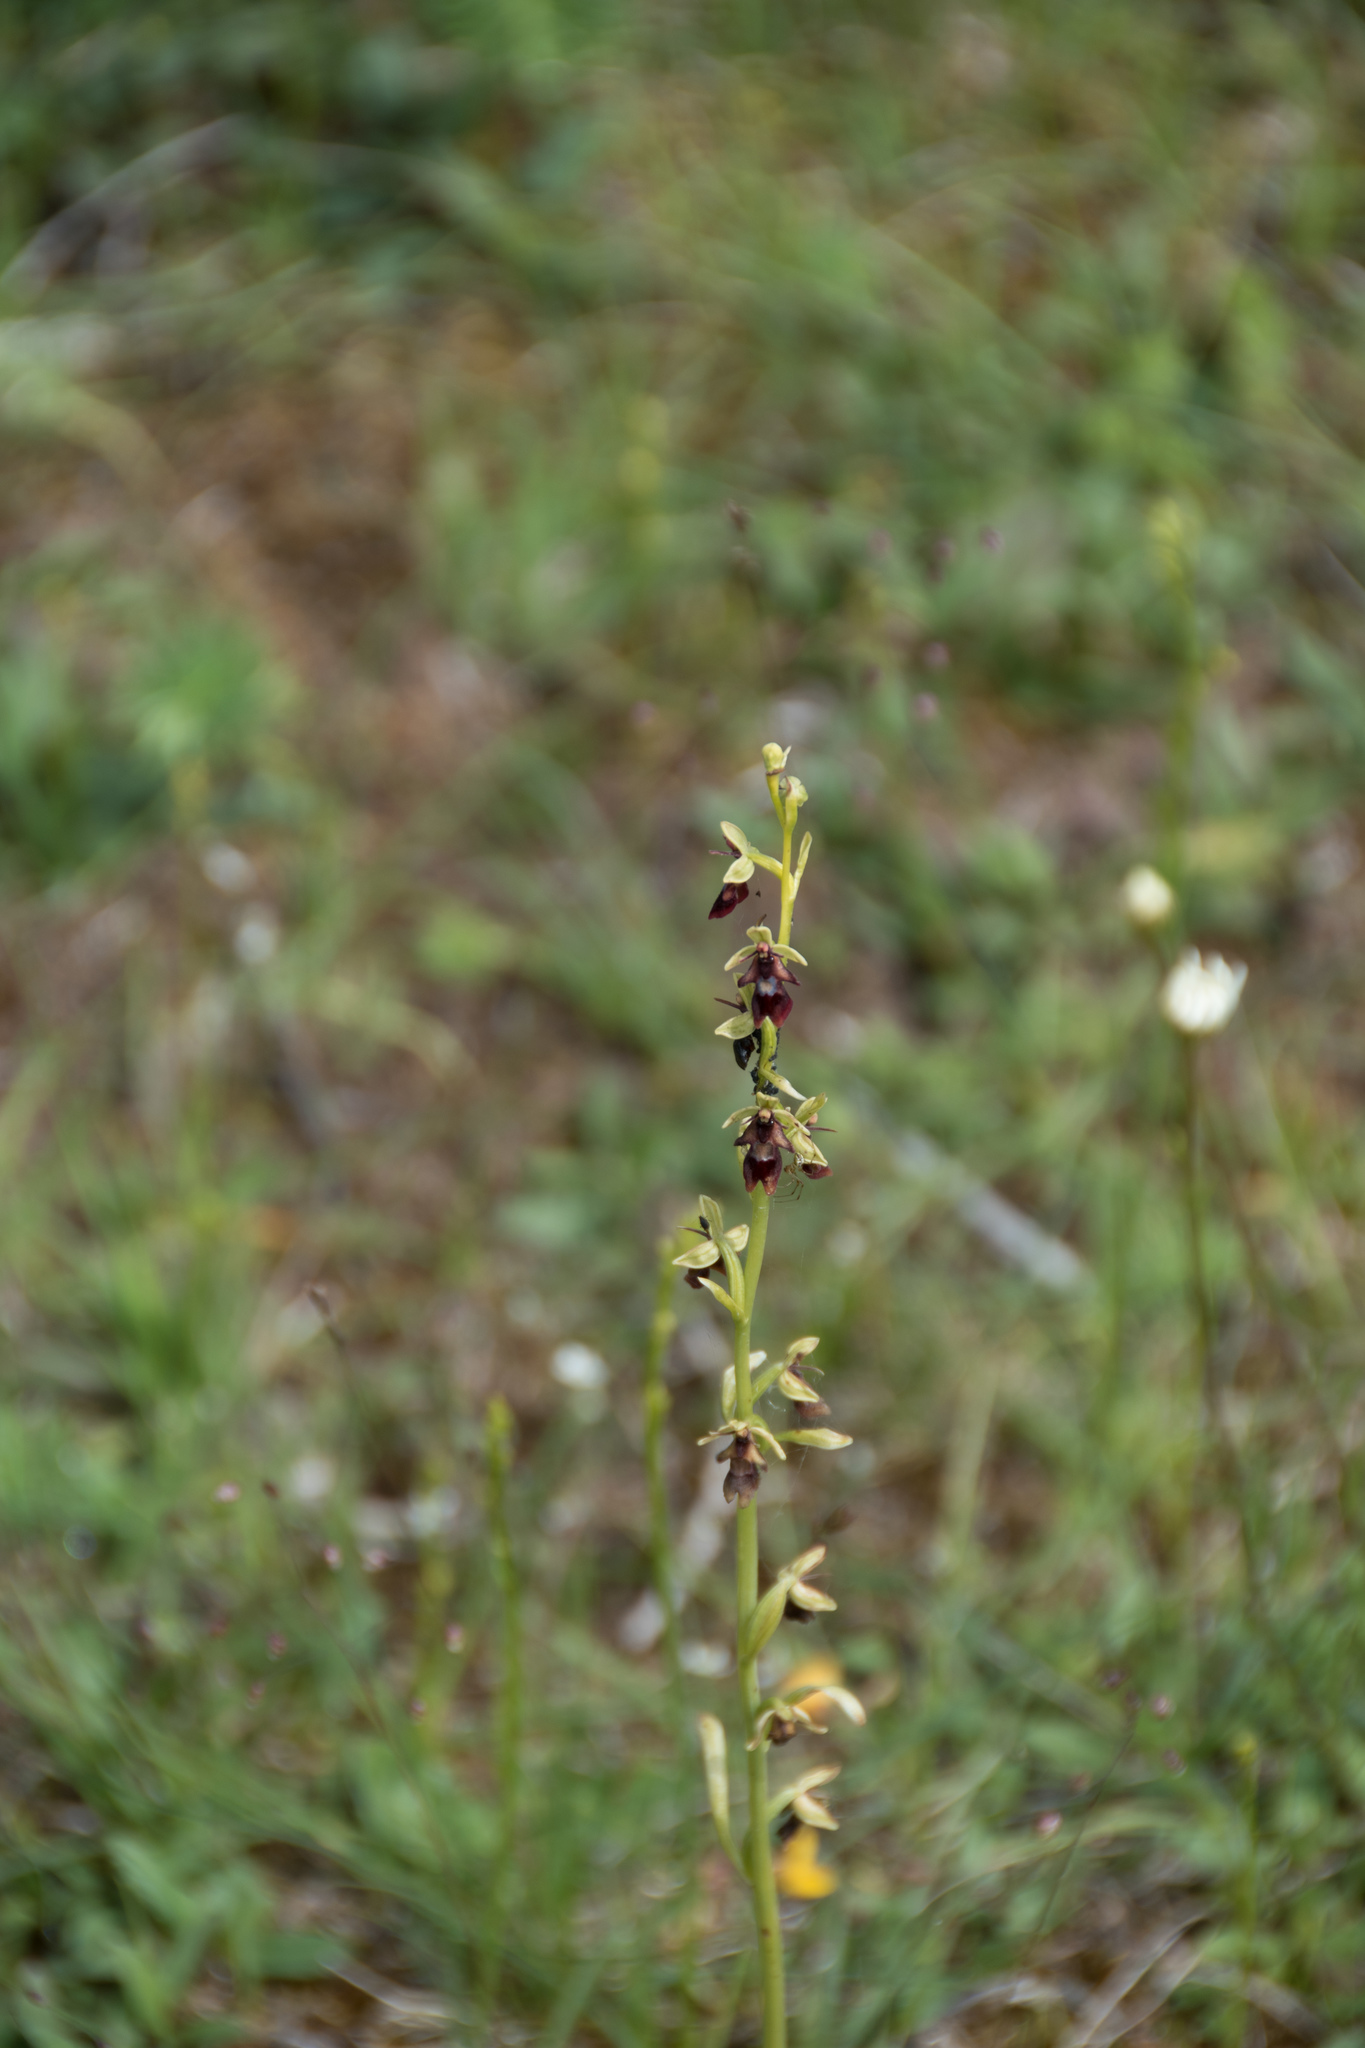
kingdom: Plantae
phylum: Tracheophyta
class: Liliopsida
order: Asparagales
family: Orchidaceae
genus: Ophrys
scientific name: Ophrys insectifera
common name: Fly orchid
